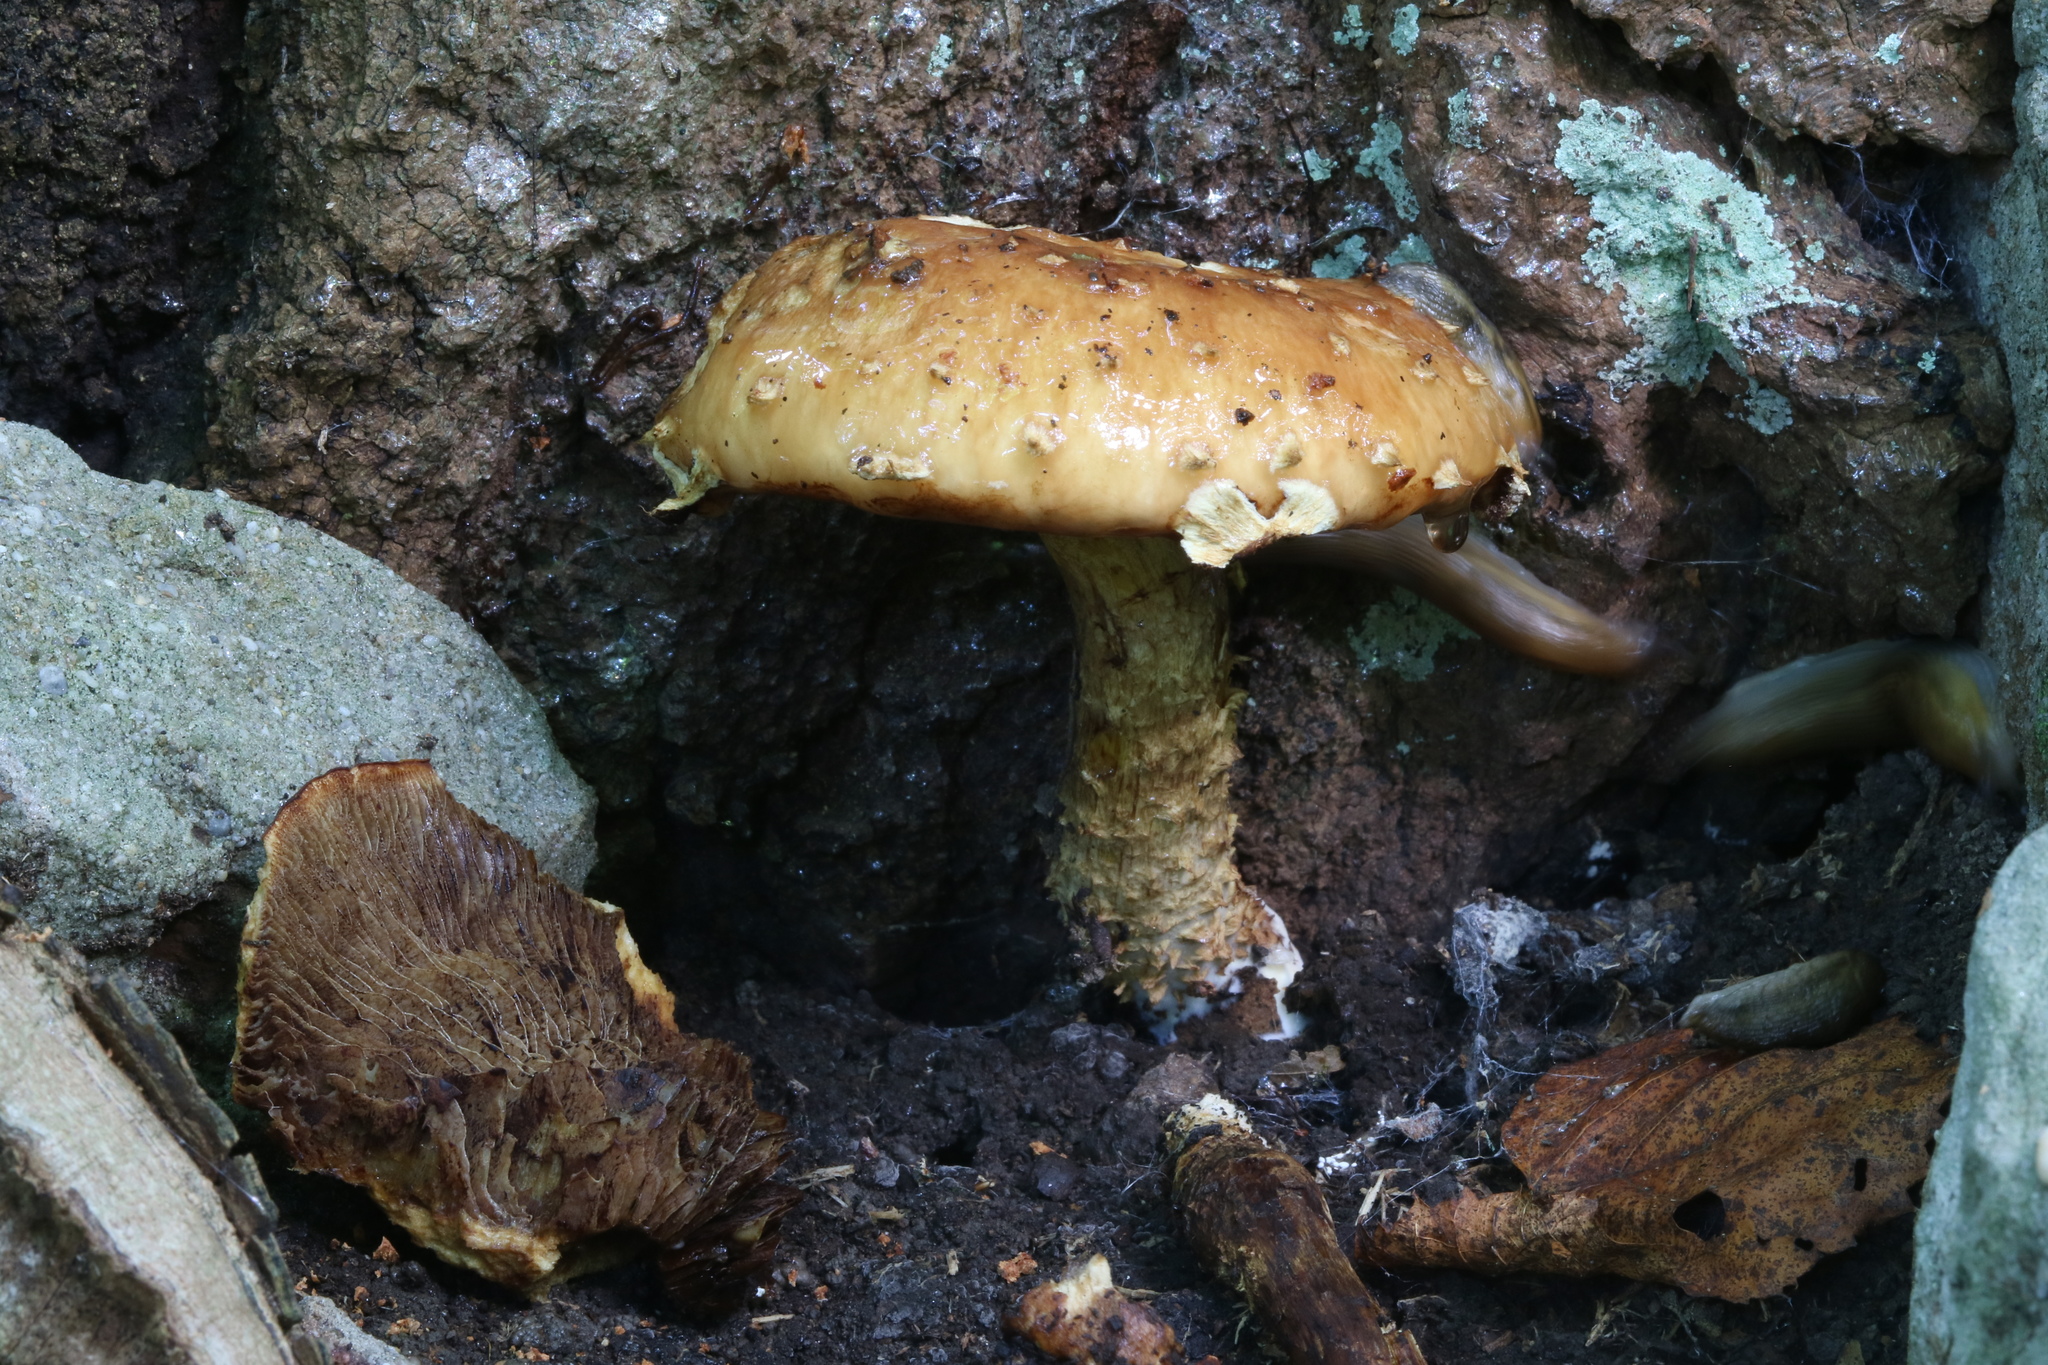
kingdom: Fungi
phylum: Basidiomycota
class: Agaricomycetes
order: Agaricales
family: Tubariaceae
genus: Hemistropharia
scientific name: Hemistropharia albocrenulata
